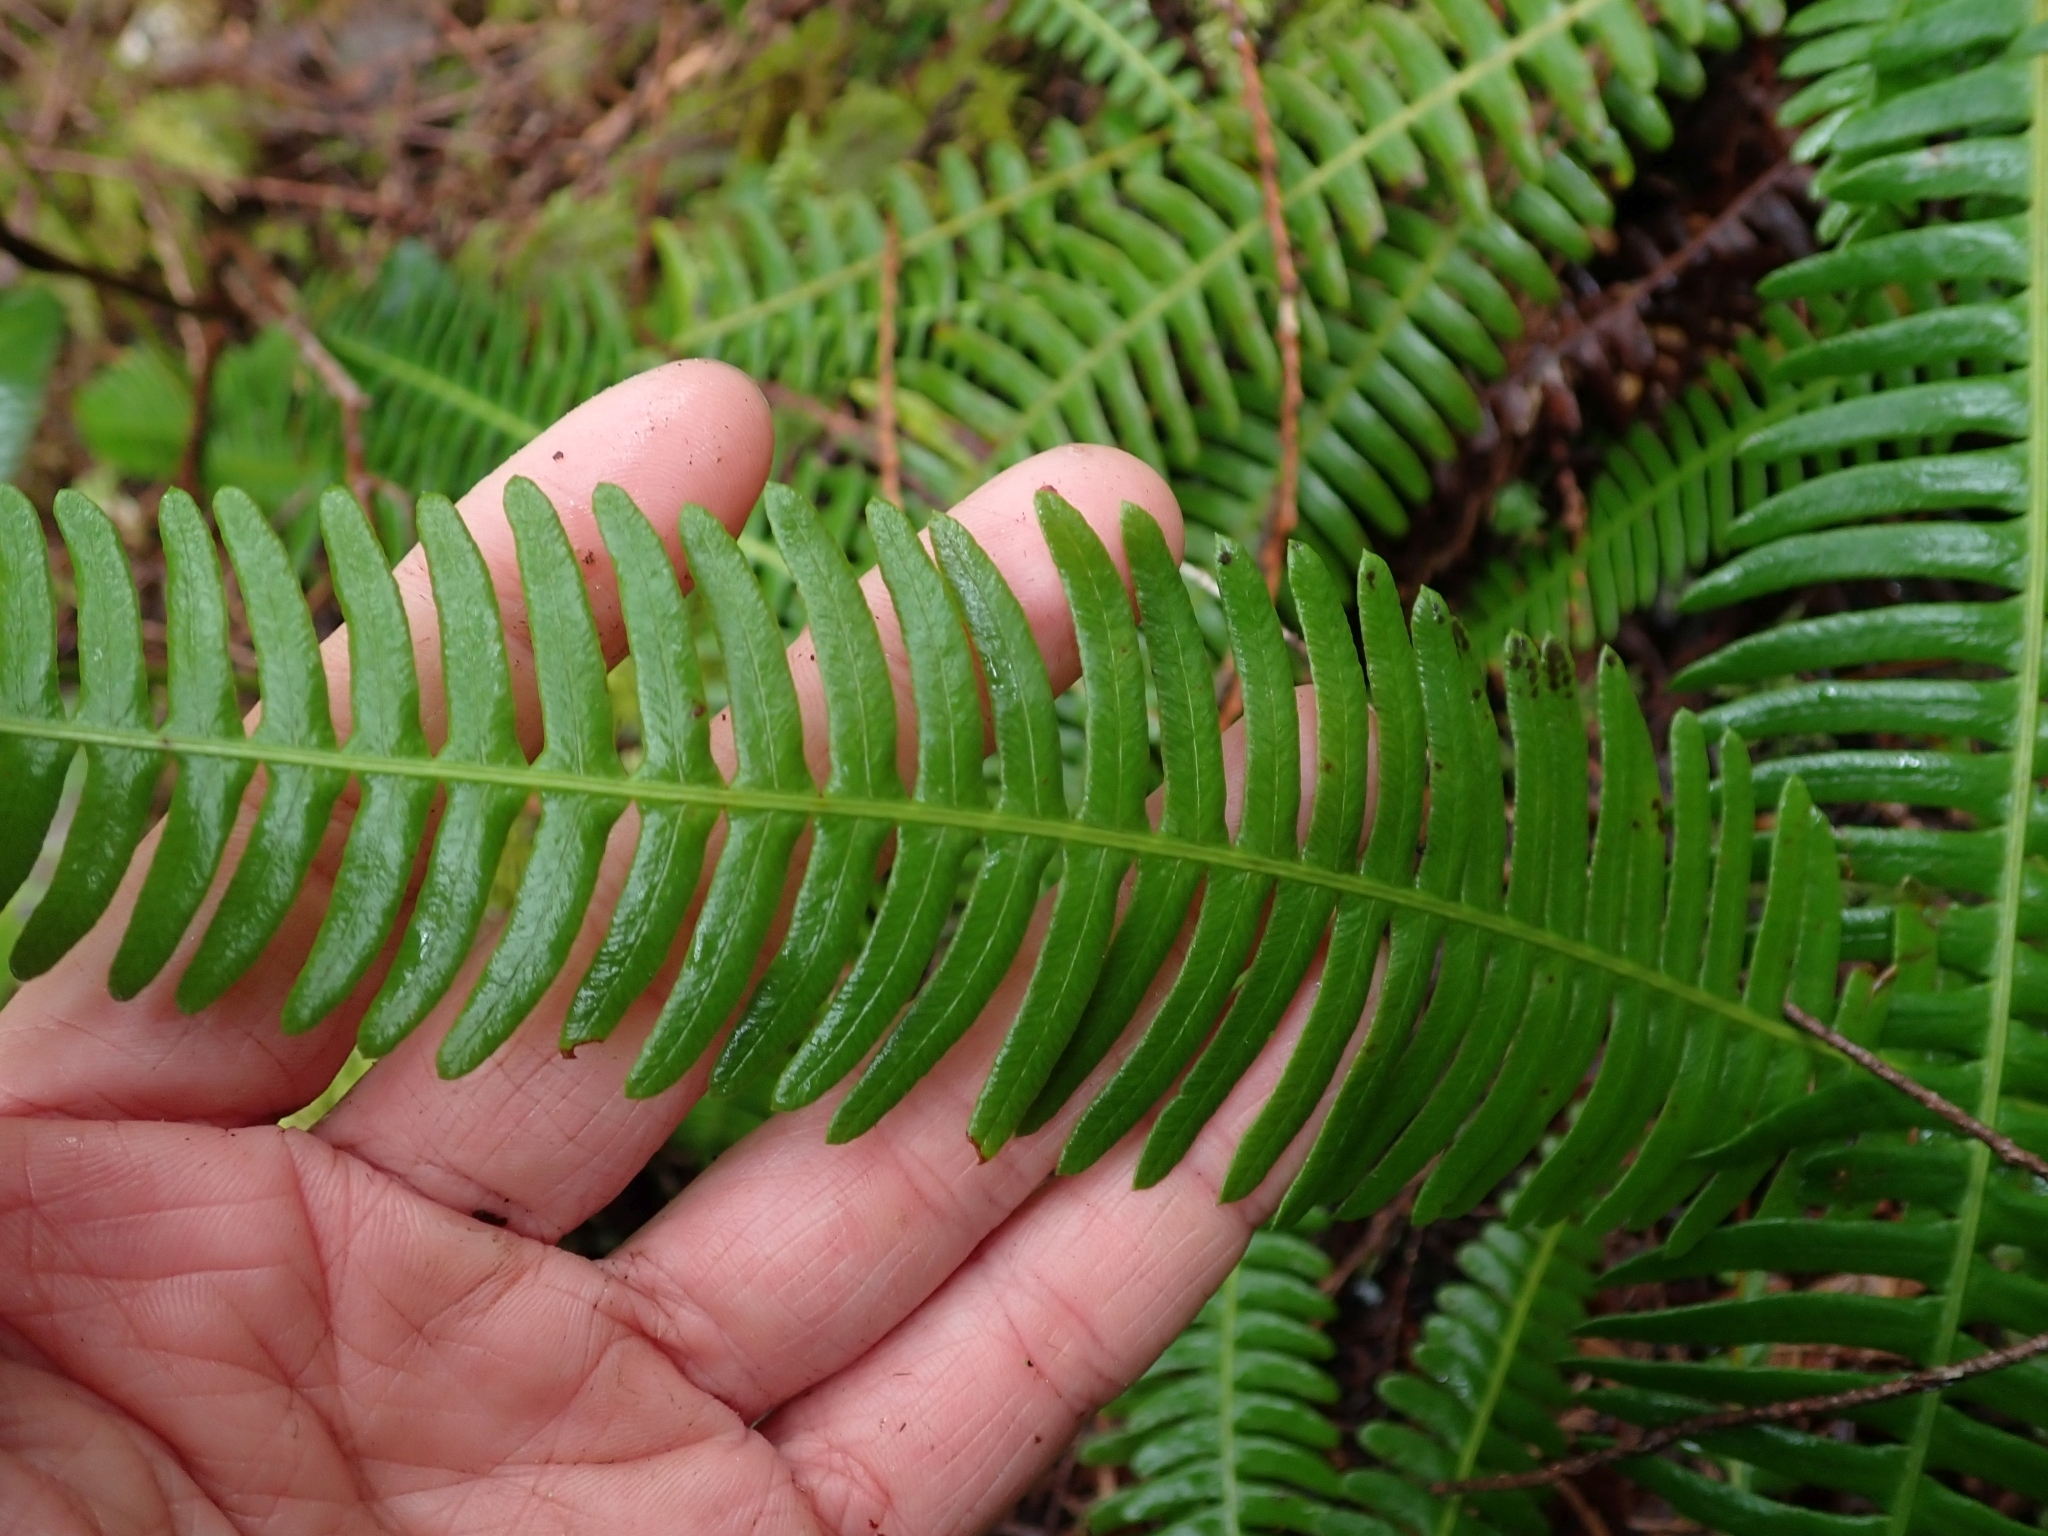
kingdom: Plantae
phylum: Tracheophyta
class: Polypodiopsida
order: Polypodiales
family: Blechnaceae
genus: Struthiopteris
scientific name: Struthiopteris spicant
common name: Deer fern
